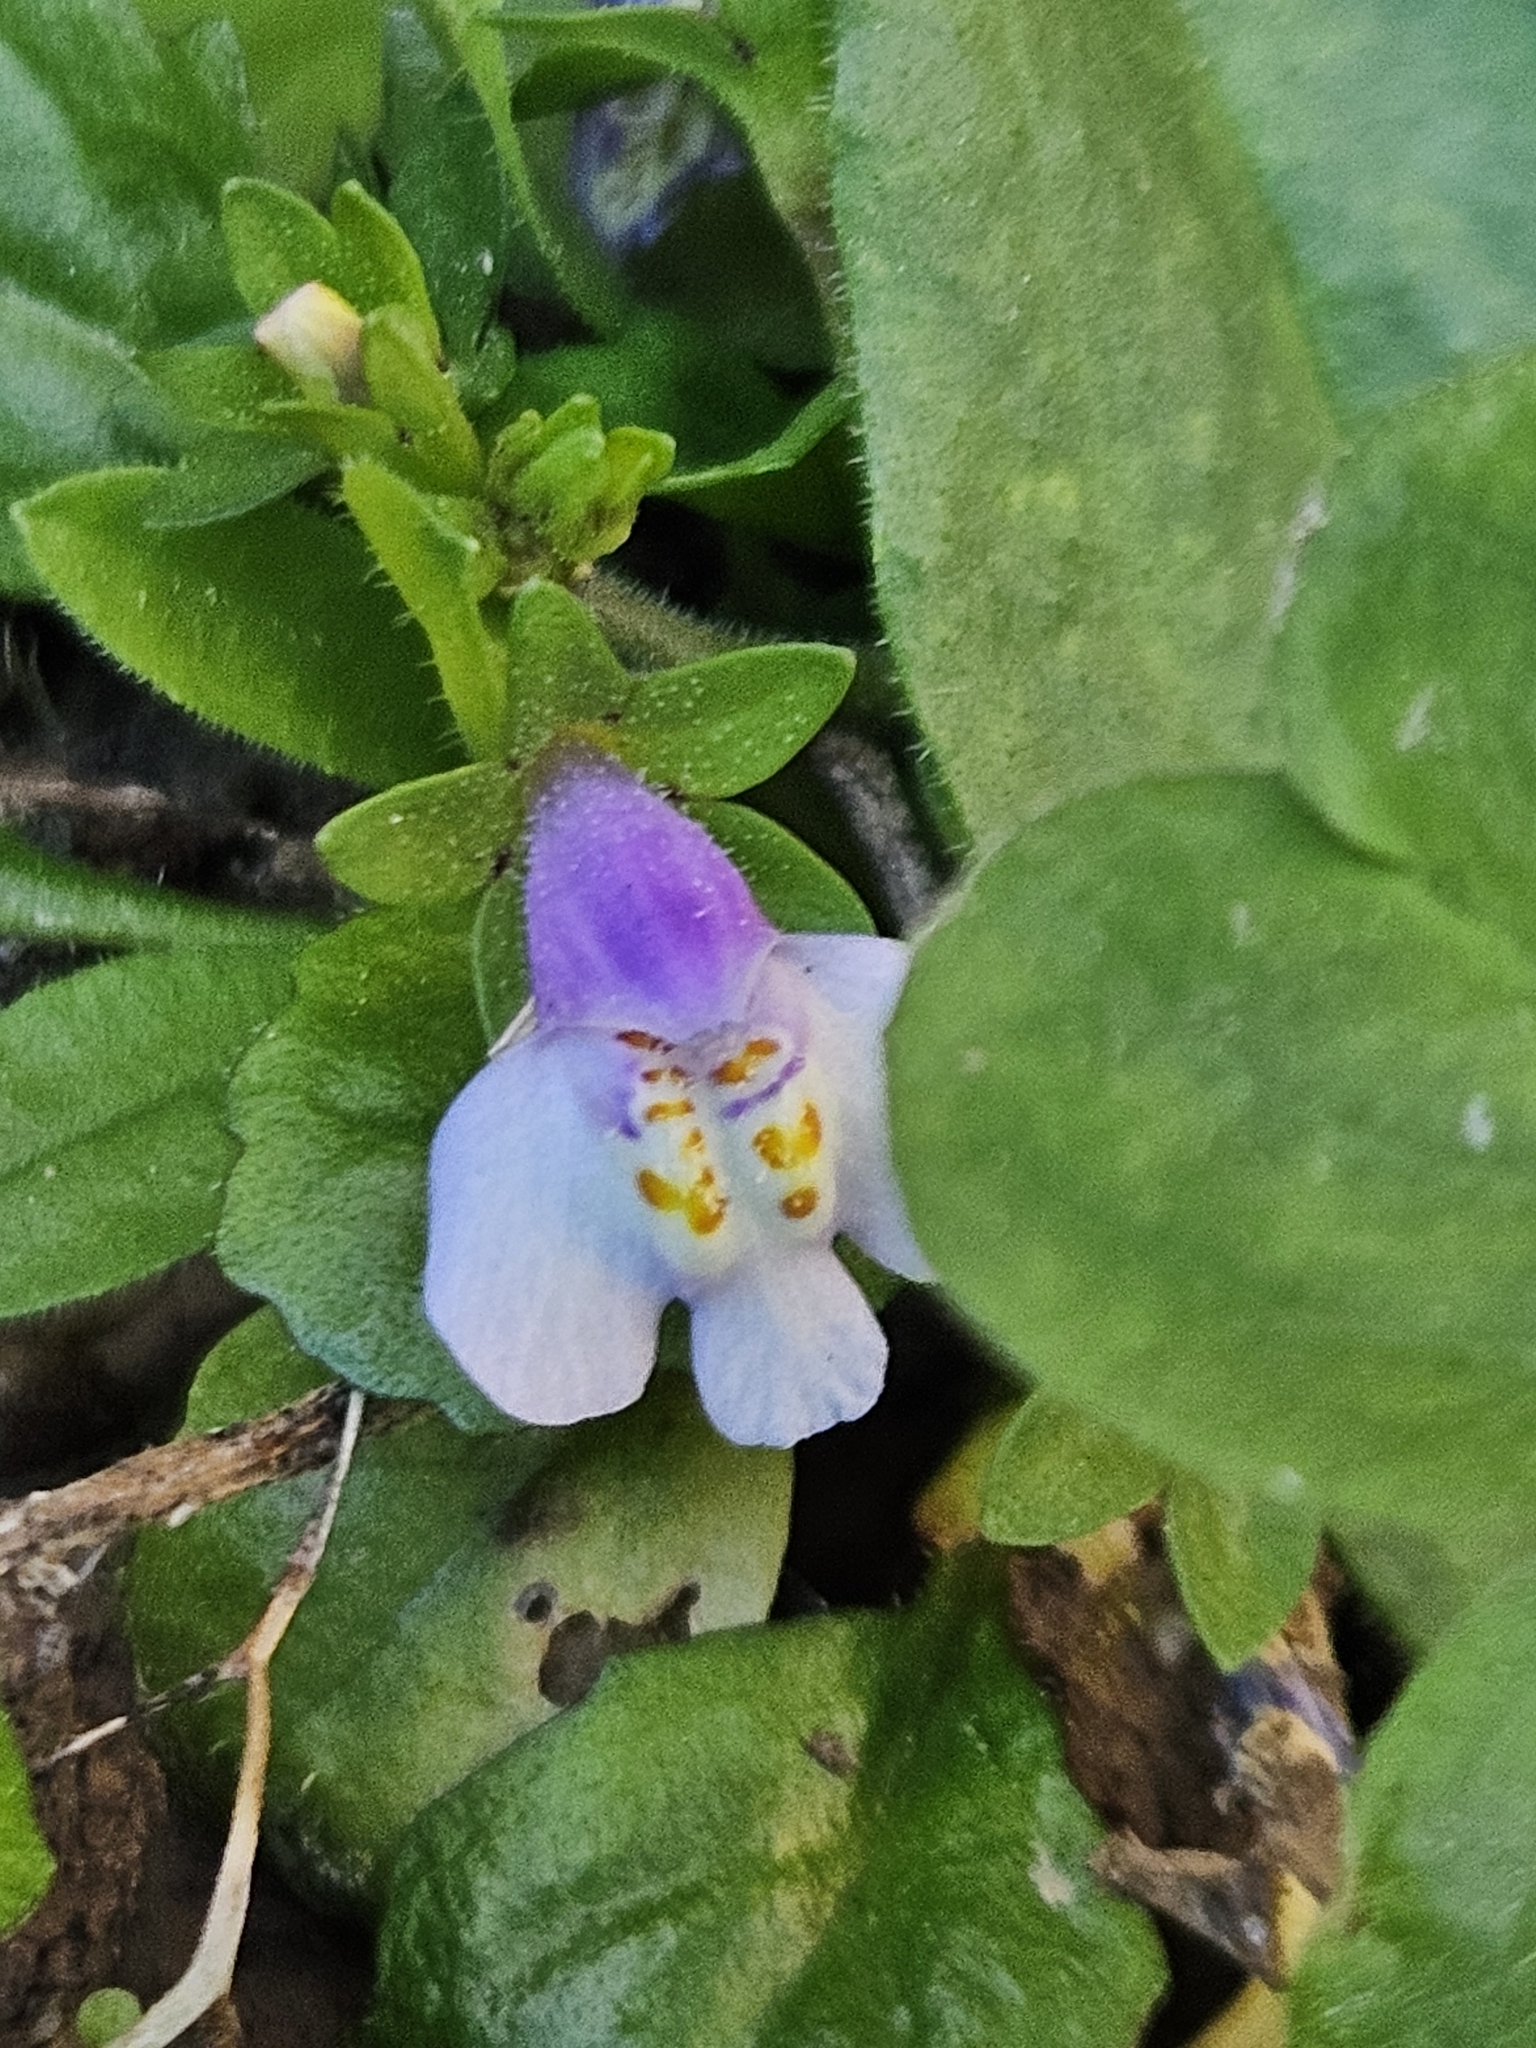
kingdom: Plantae
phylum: Tracheophyta
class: Magnoliopsida
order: Lamiales
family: Mazaceae
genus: Mazus
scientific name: Mazus pumilus
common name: Japanese mazus
